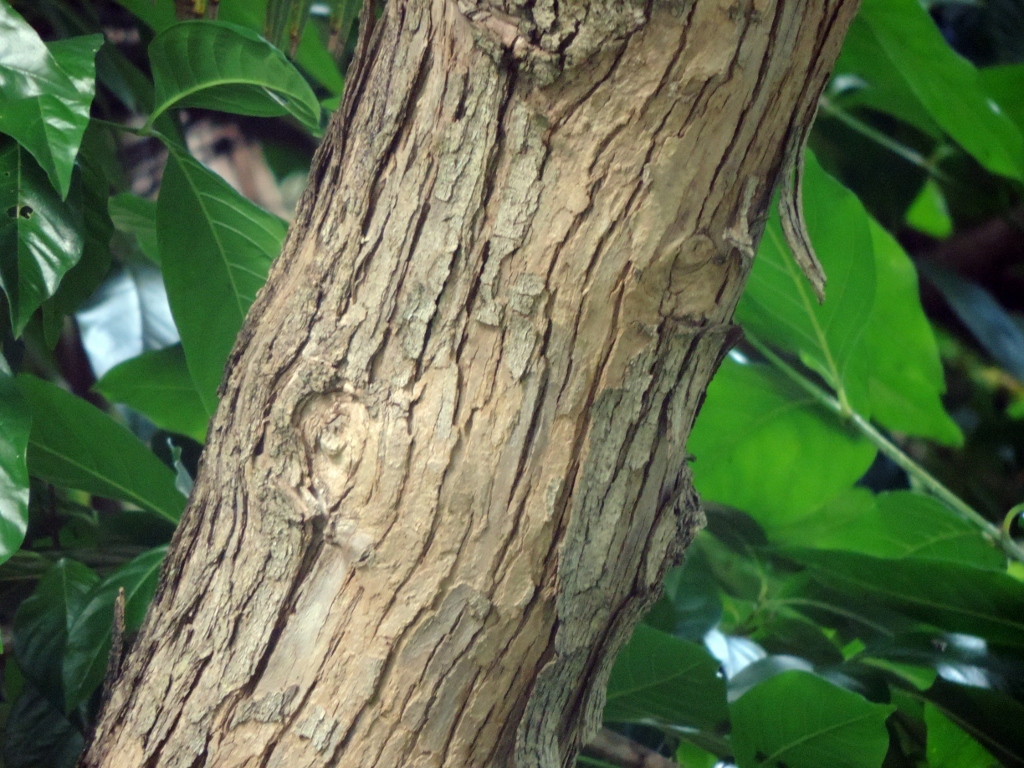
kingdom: Plantae
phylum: Tracheophyta
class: Magnoliopsida
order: Lamiales
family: Verbenaceae
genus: Citharexylum
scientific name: Citharexylum spinosum
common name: Fiddlewood
